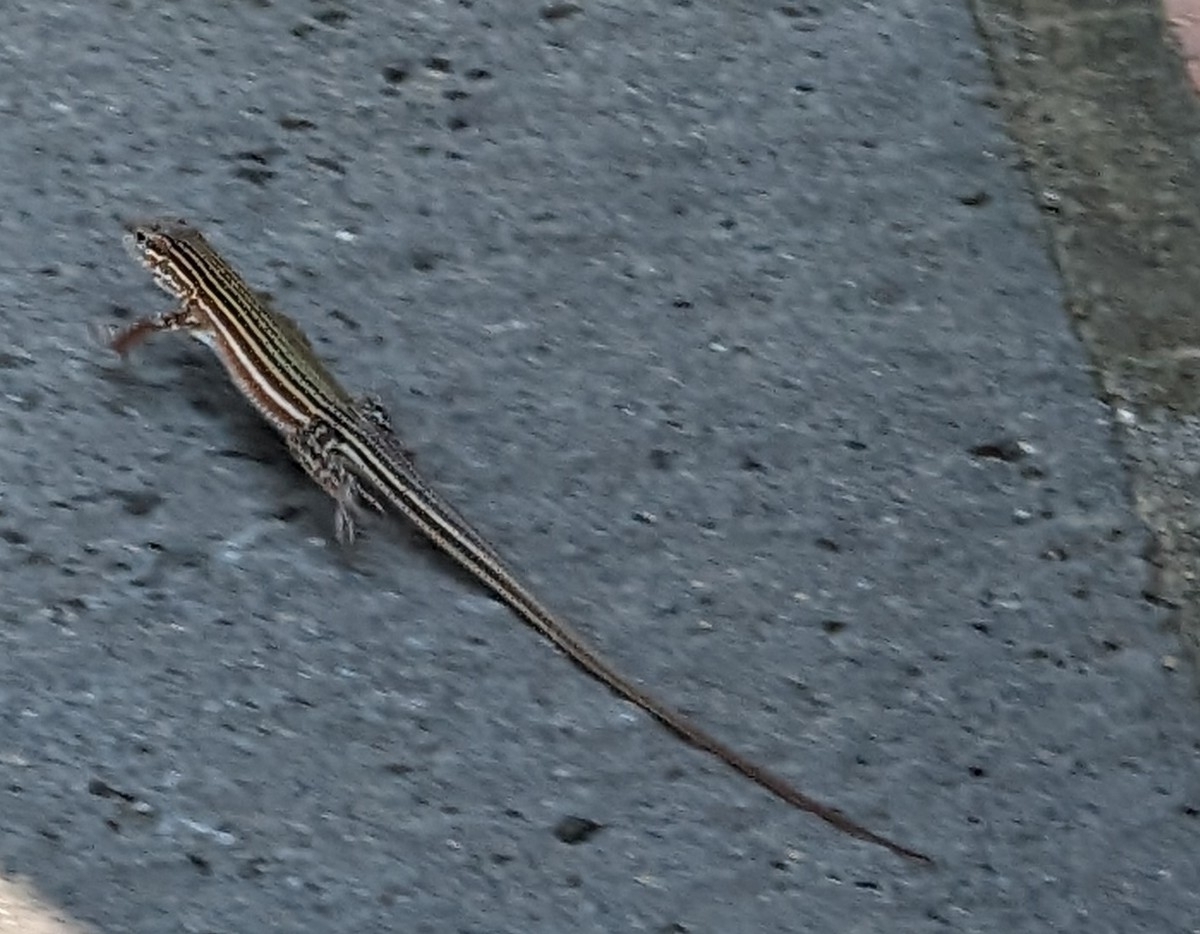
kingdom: Animalia
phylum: Chordata
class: Squamata
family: Teiidae
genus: Aspidoscelis
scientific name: Aspidoscelis deppii
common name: Blackbelly racerunner
